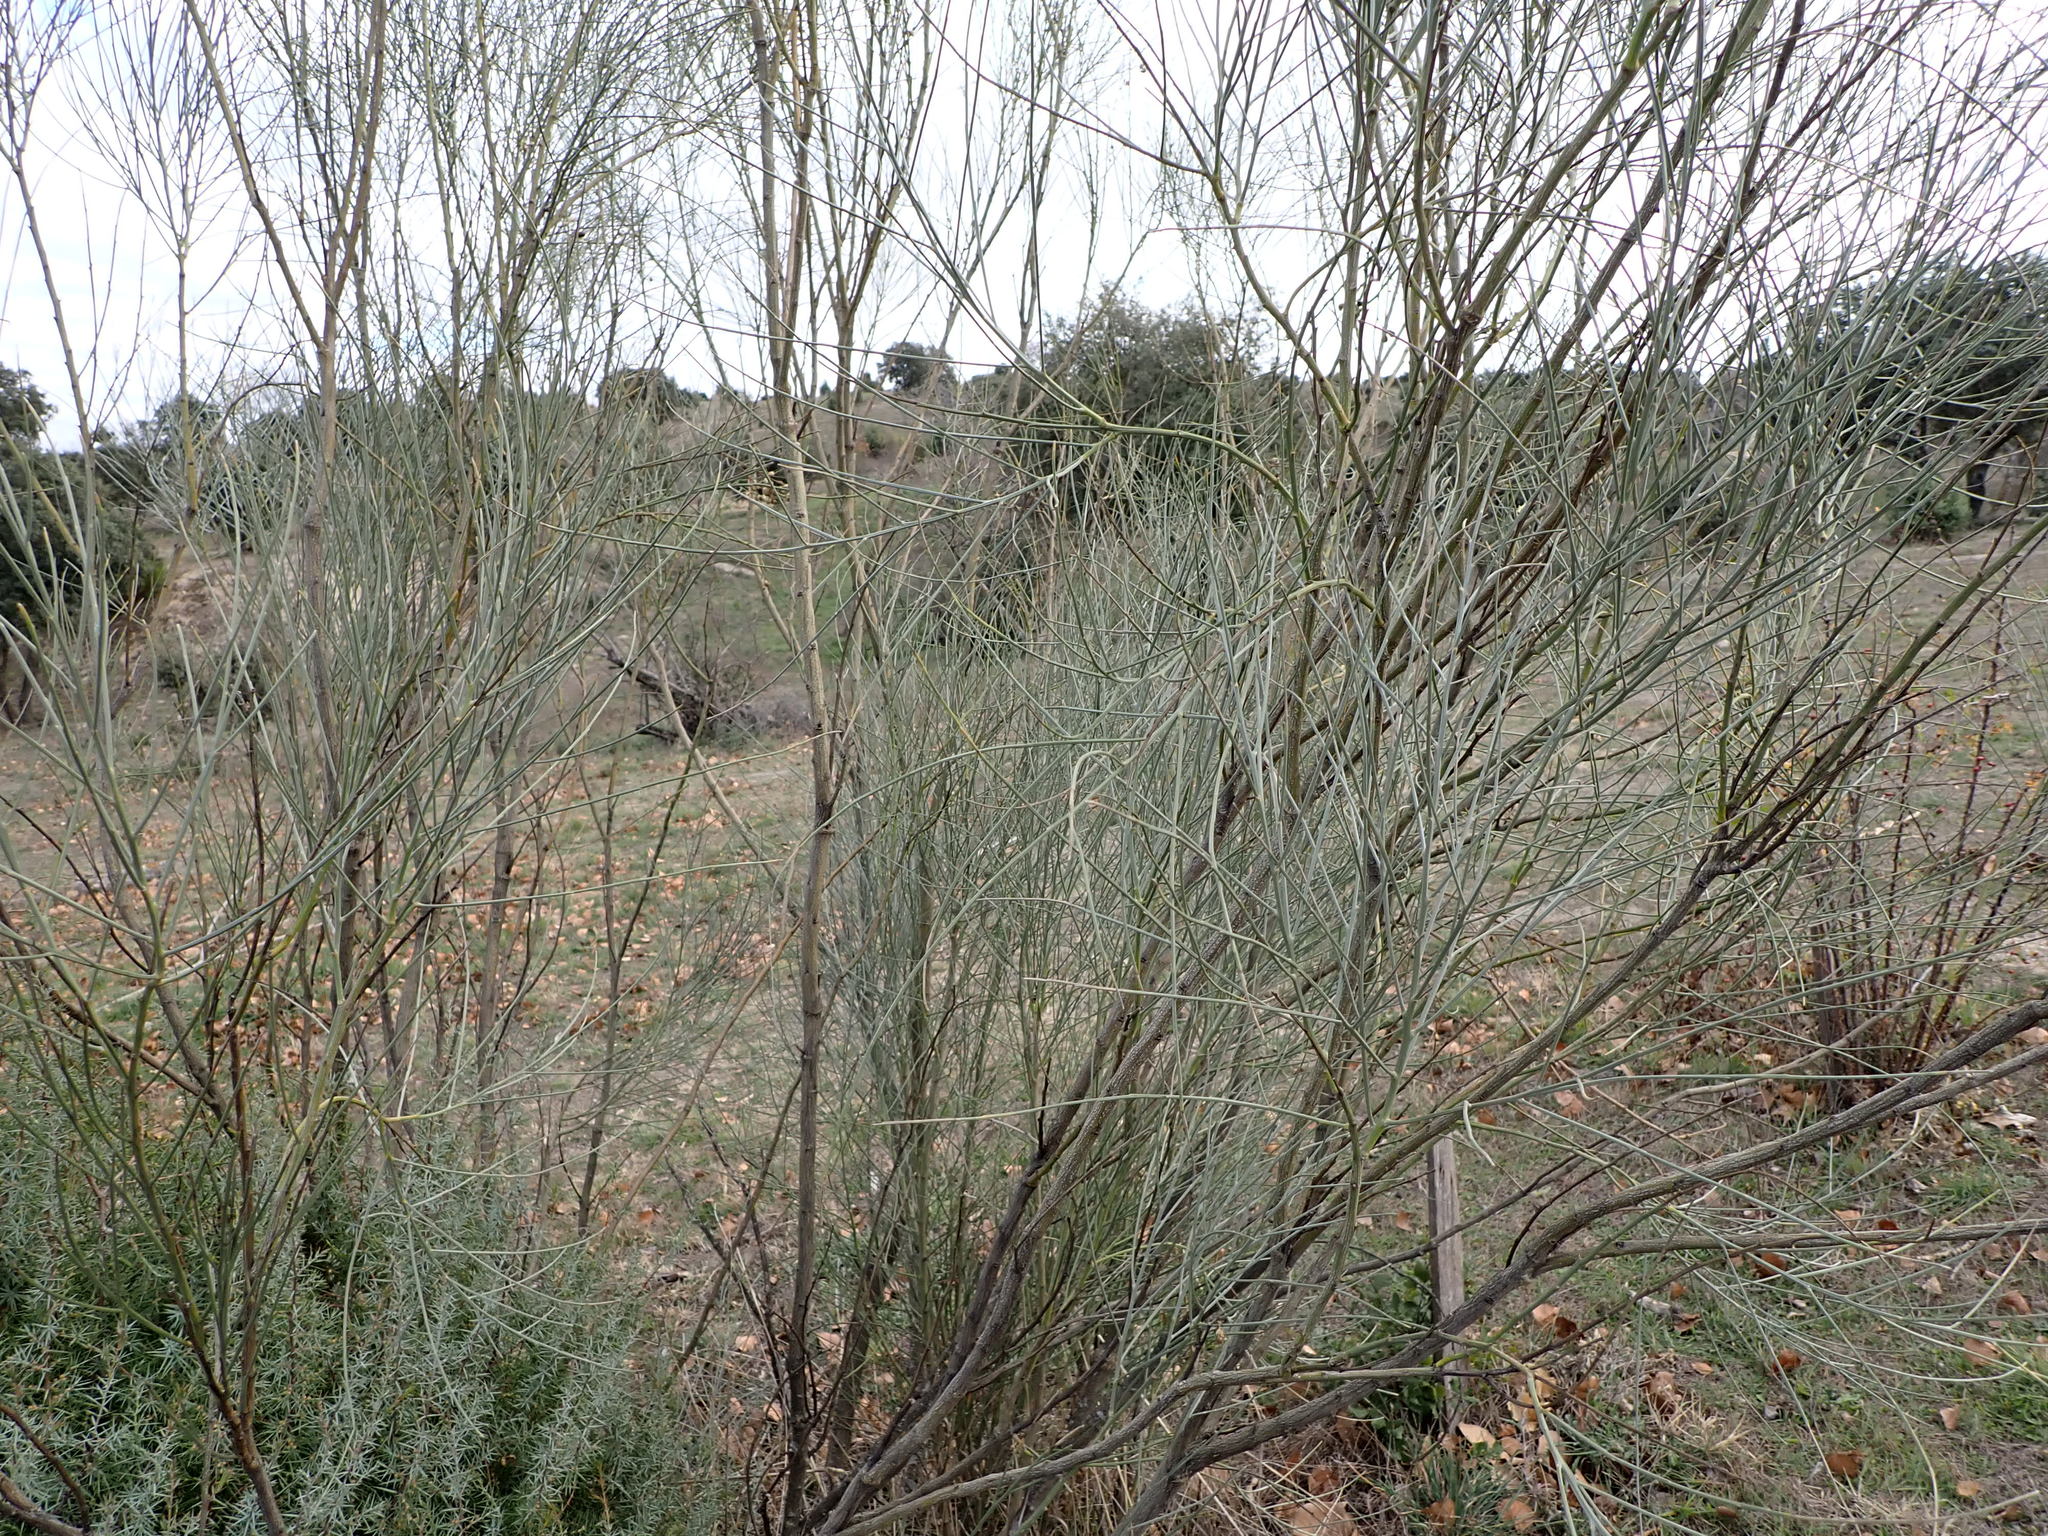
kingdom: Plantae
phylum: Tracheophyta
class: Magnoliopsida
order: Fabales
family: Fabaceae
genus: Retama
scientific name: Retama sphaerocarpa
